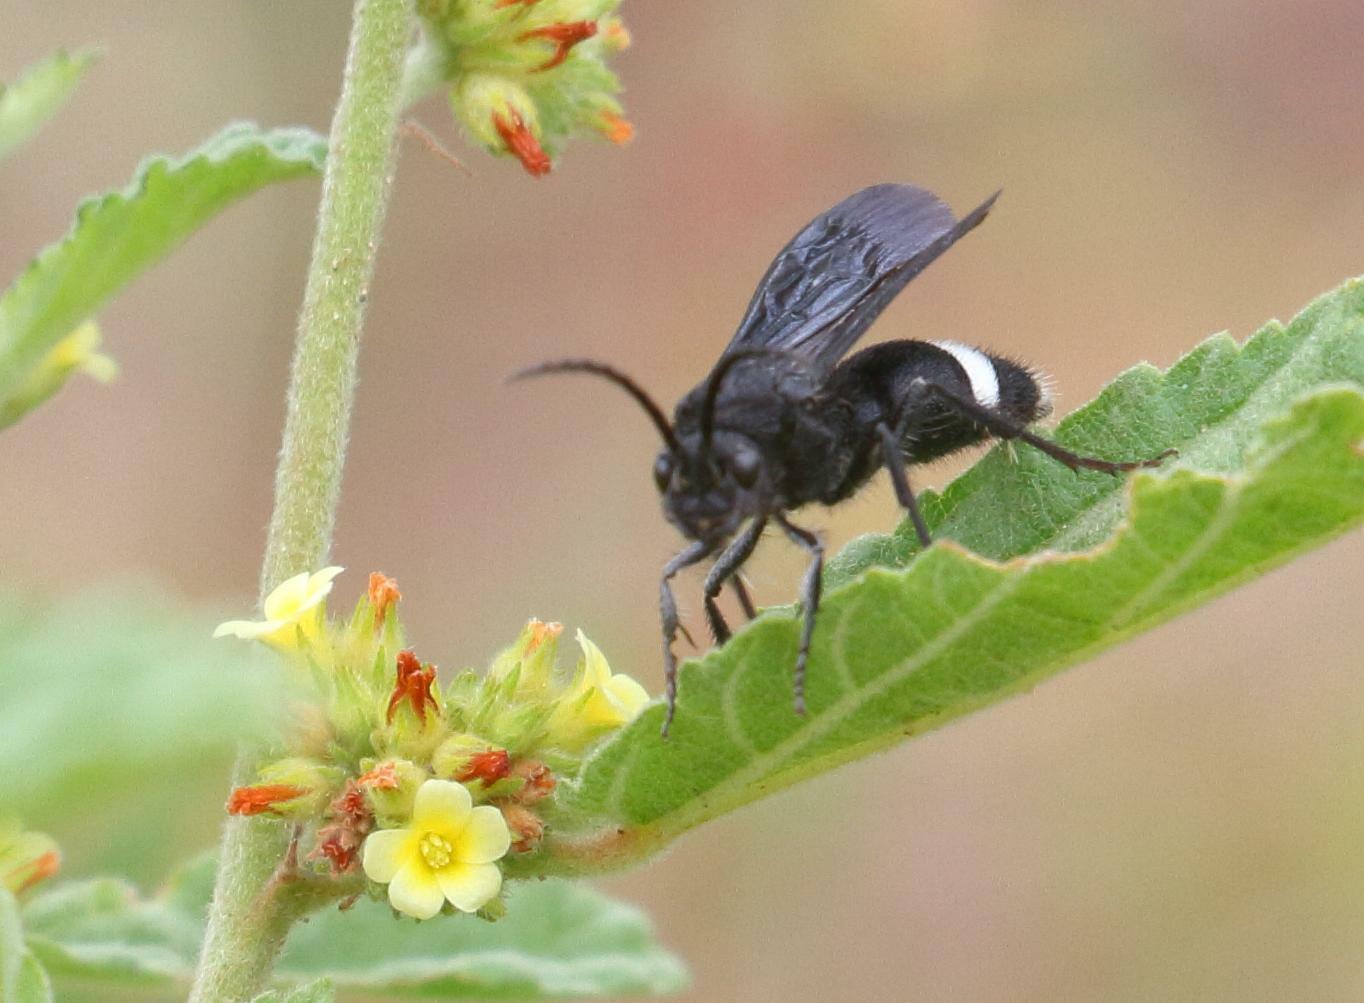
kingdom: Animalia
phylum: Arthropoda
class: Insecta
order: Hymenoptera
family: Mutillidae
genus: Pseudocephalotilla
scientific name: Pseudocephalotilla
